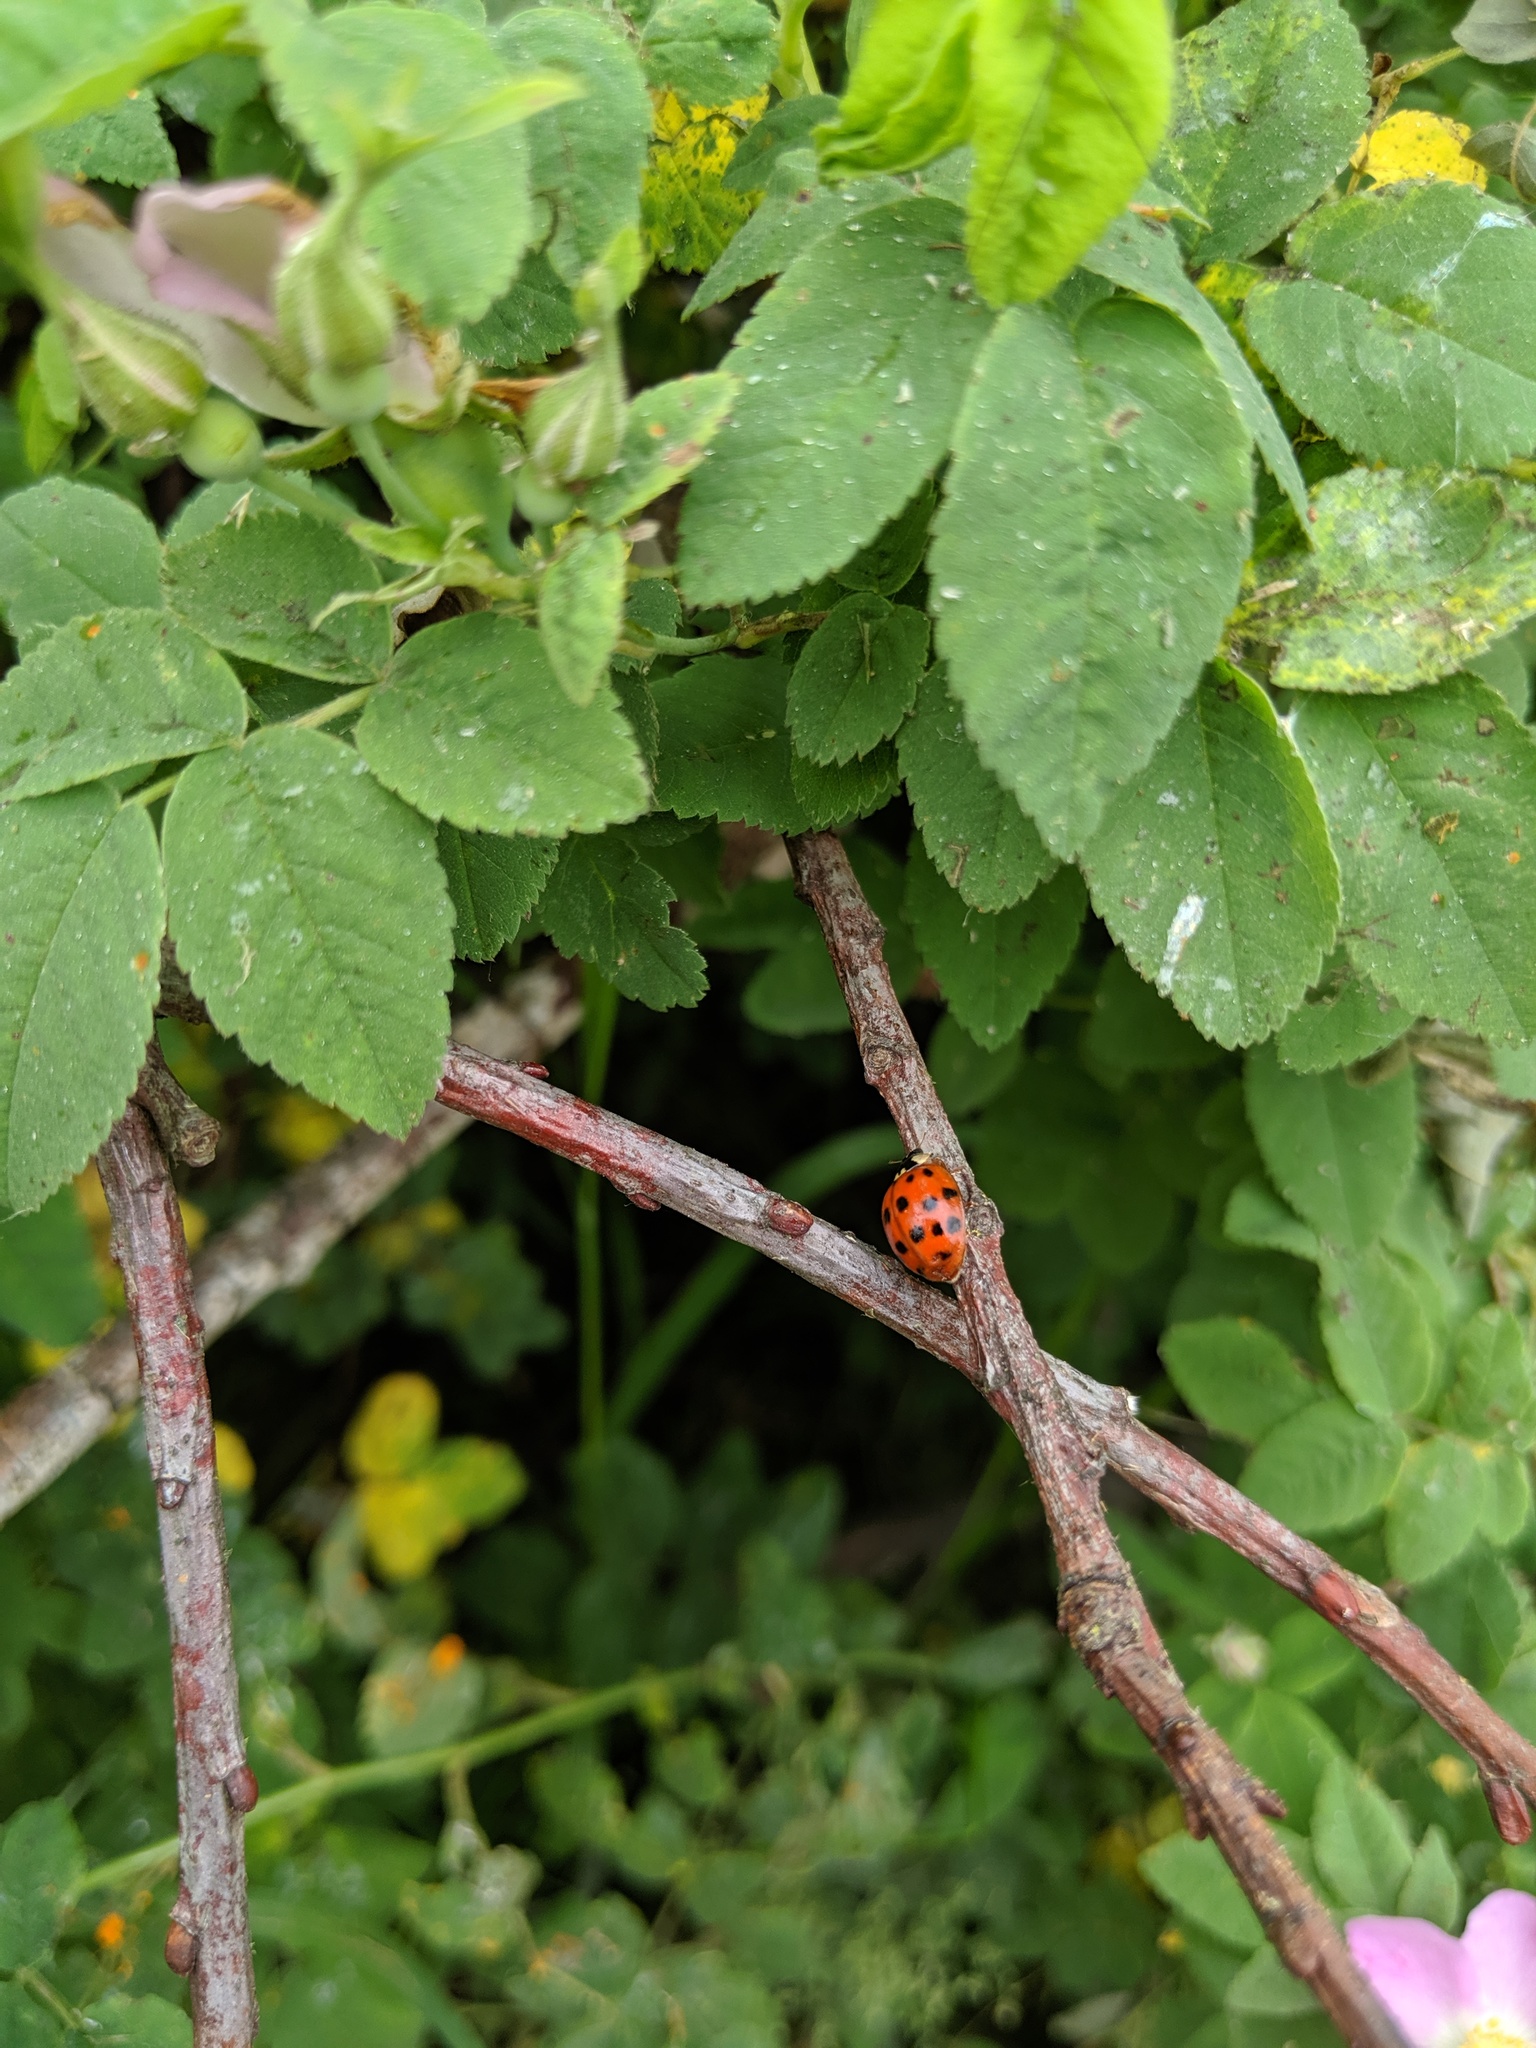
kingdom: Animalia
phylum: Arthropoda
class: Insecta
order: Coleoptera
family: Coccinellidae
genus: Harmonia
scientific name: Harmonia axyridis
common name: Harlequin ladybird
